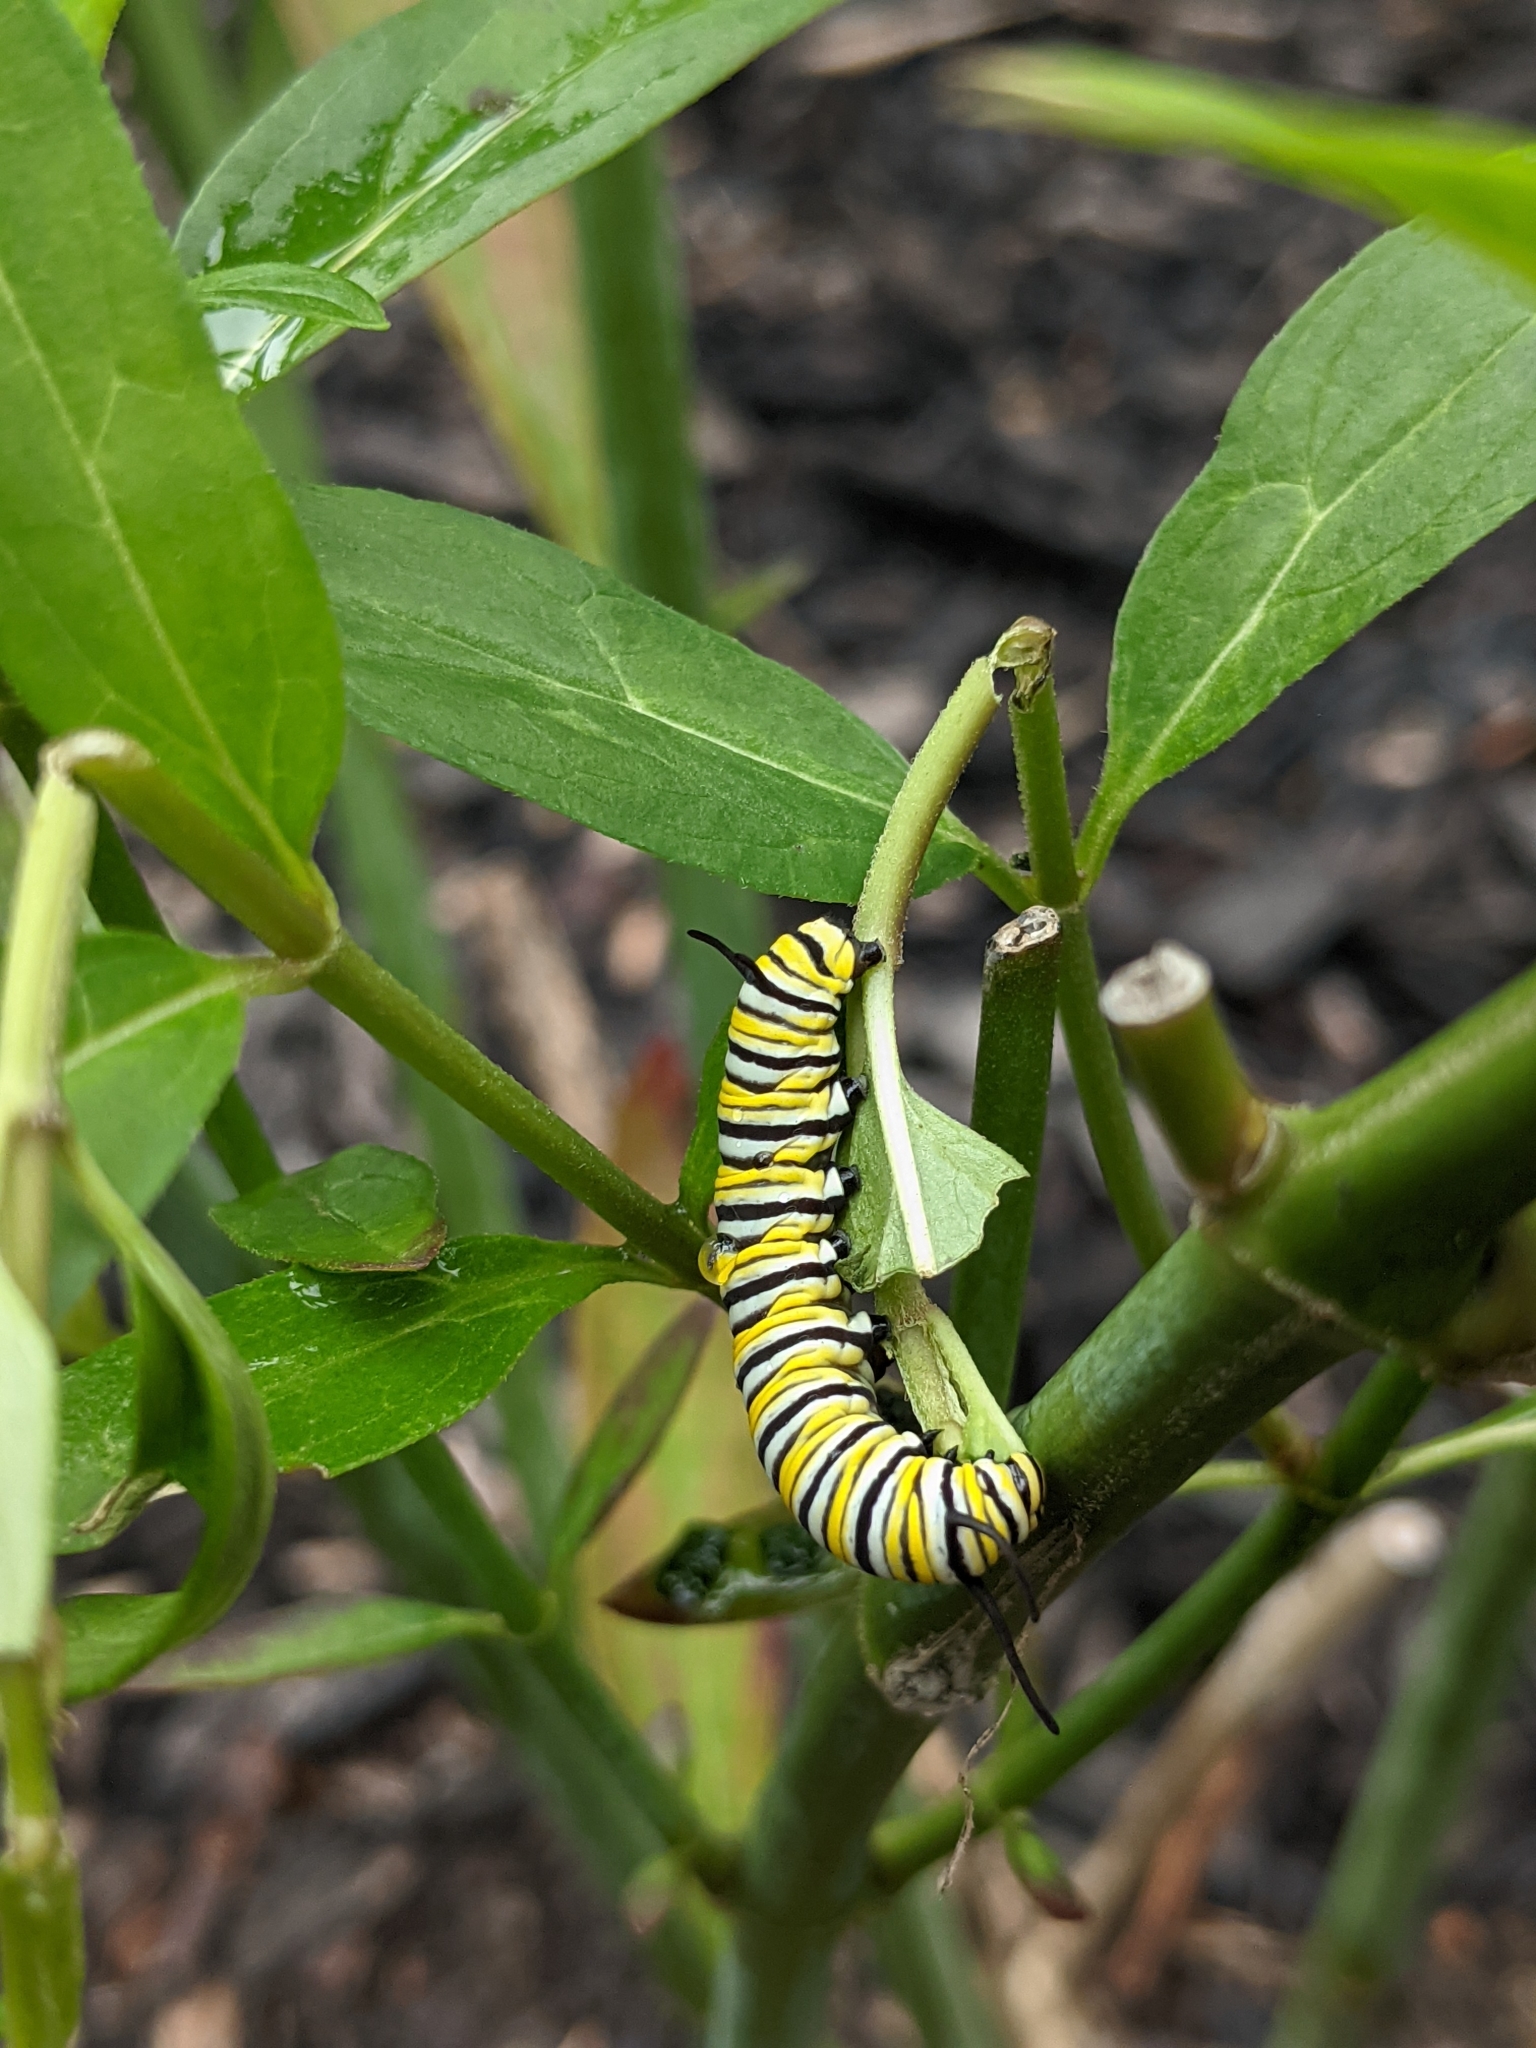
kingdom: Animalia
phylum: Arthropoda
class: Insecta
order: Lepidoptera
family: Nymphalidae
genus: Danaus
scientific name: Danaus plexippus
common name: Monarch
